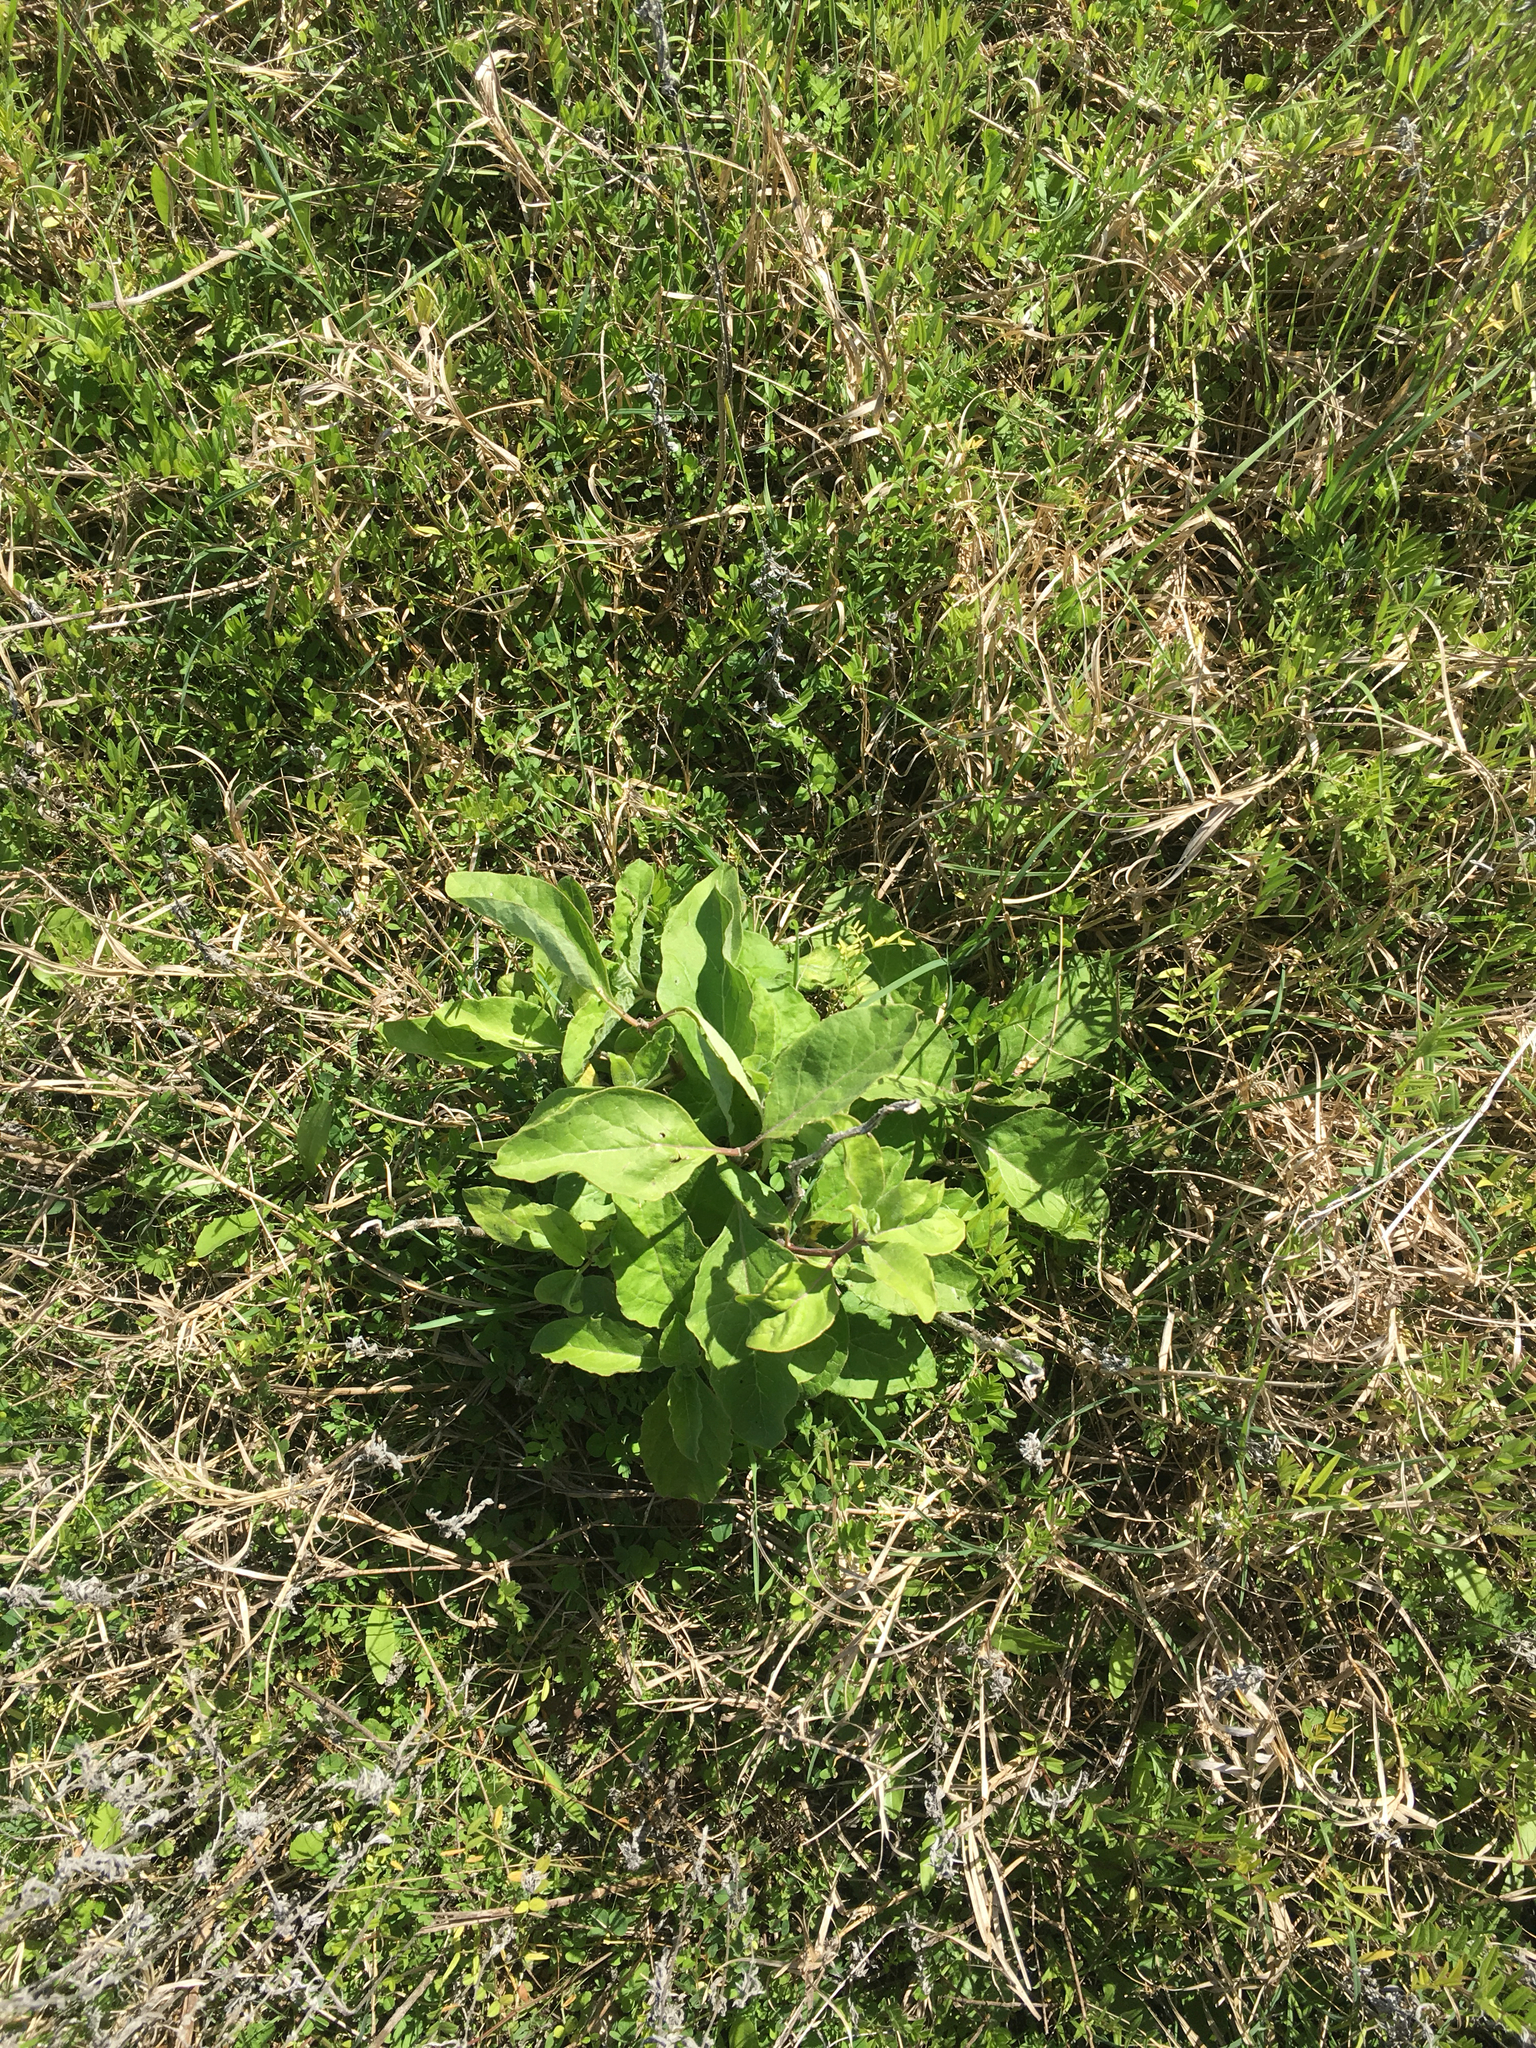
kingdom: Plantae
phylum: Tracheophyta
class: Magnoliopsida
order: Gentianales
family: Apocynaceae
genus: Asclepias
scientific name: Asclepias oenotheroides
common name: Zizotes milkweed
